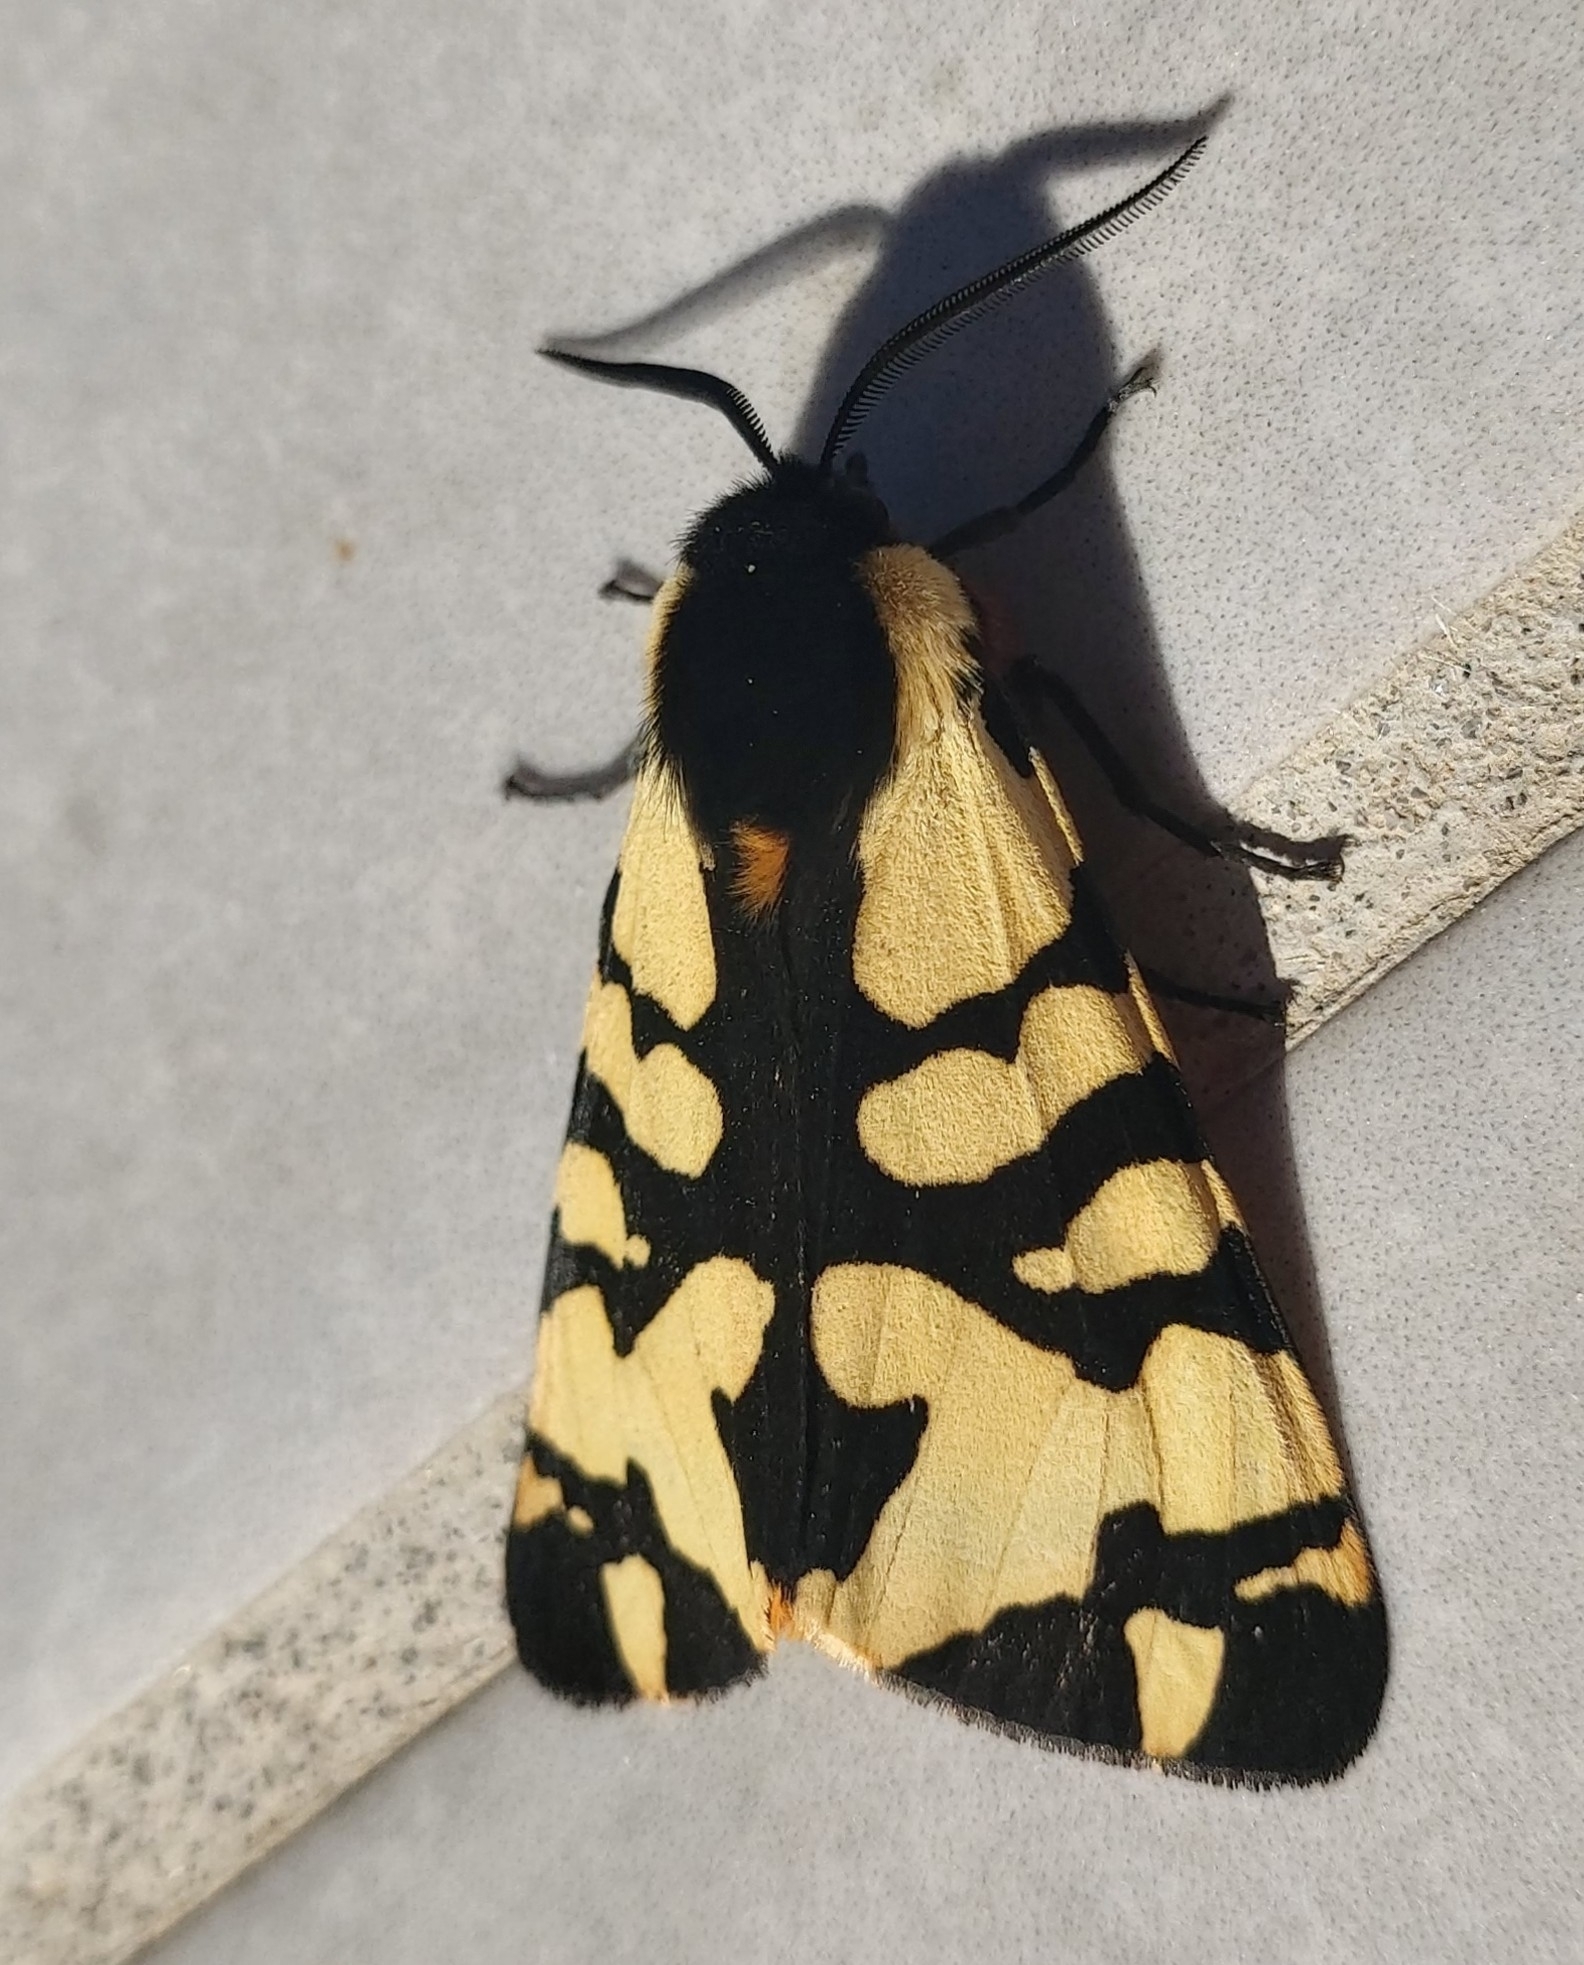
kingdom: Animalia
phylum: Arthropoda
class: Insecta
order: Lepidoptera
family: Erebidae
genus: Epicallia
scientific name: Epicallia villica
